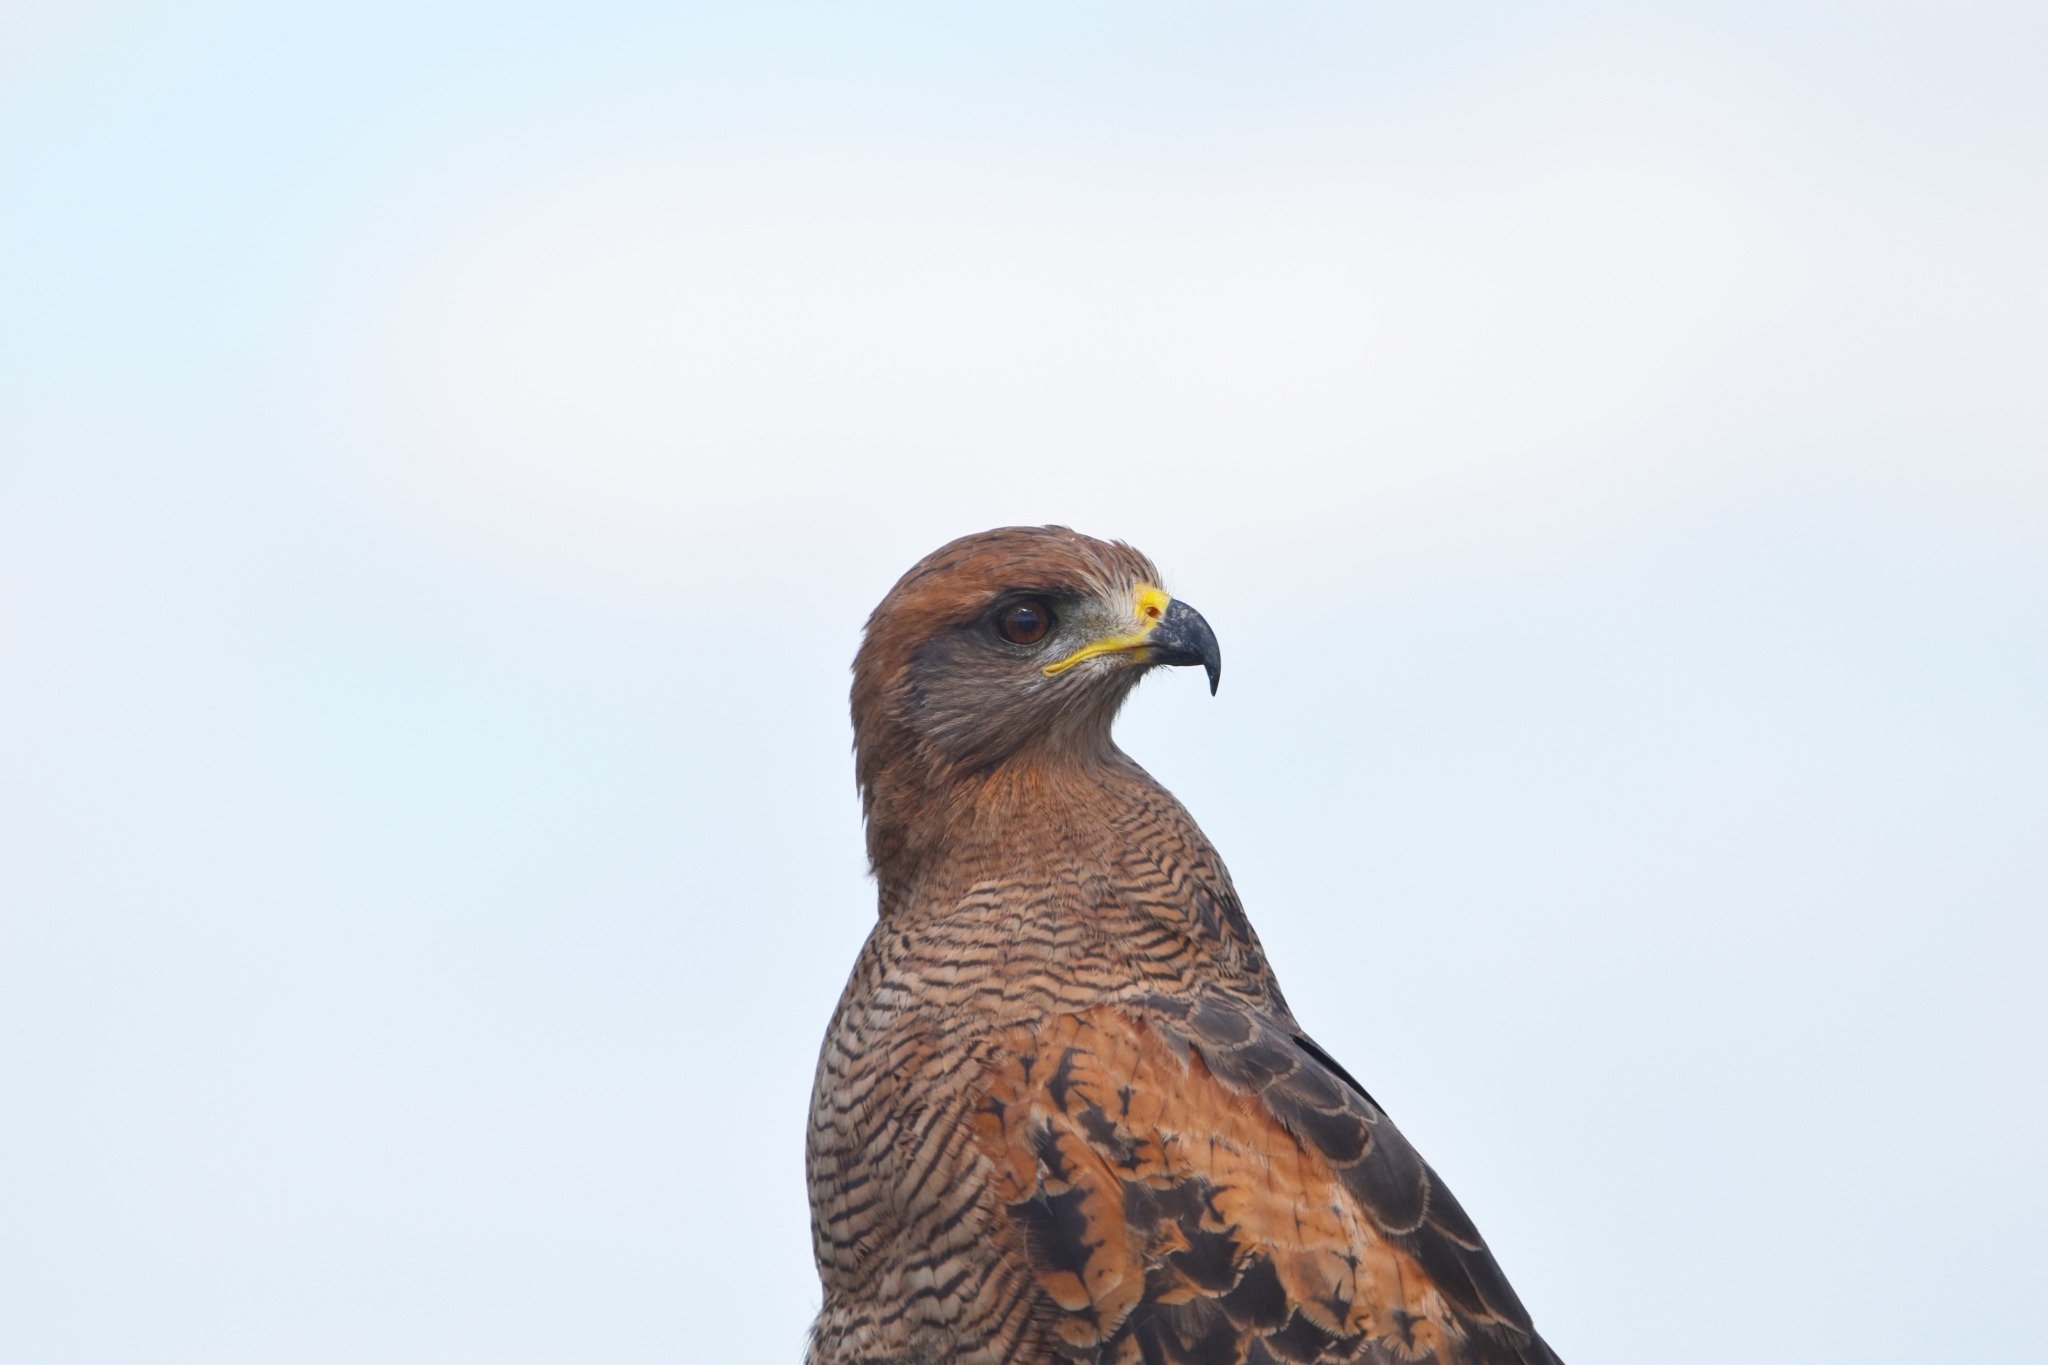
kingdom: Animalia
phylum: Chordata
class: Aves
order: Accipitriformes
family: Accipitridae
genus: Buteogallus
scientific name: Buteogallus meridionalis
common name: Savanna hawk
